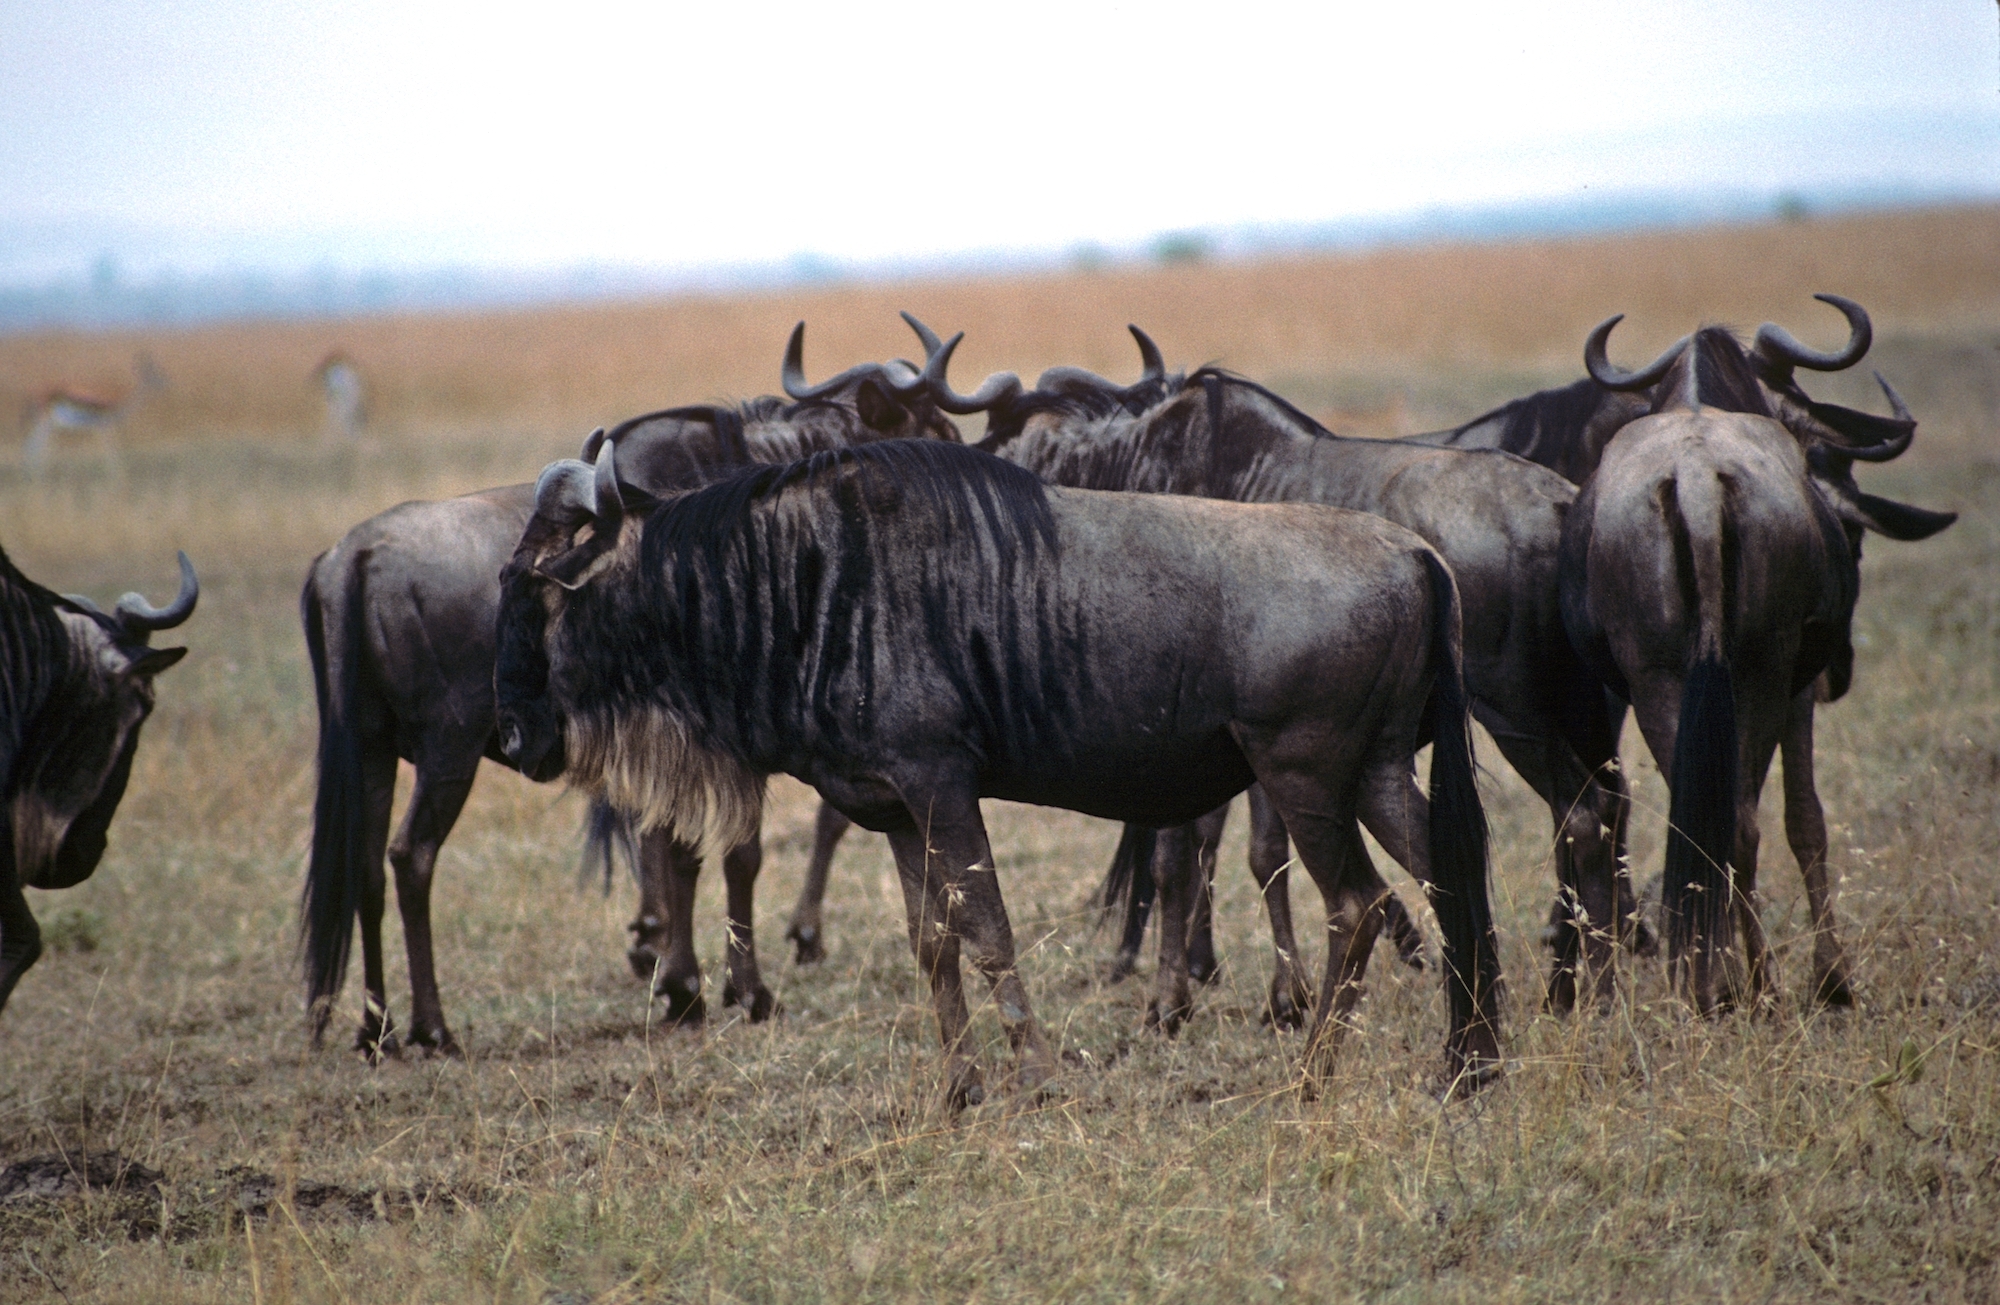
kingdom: Animalia
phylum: Chordata
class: Mammalia
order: Artiodactyla
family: Bovidae
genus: Connochaetes
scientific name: Connochaetes taurinus
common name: Blue wildebeest
